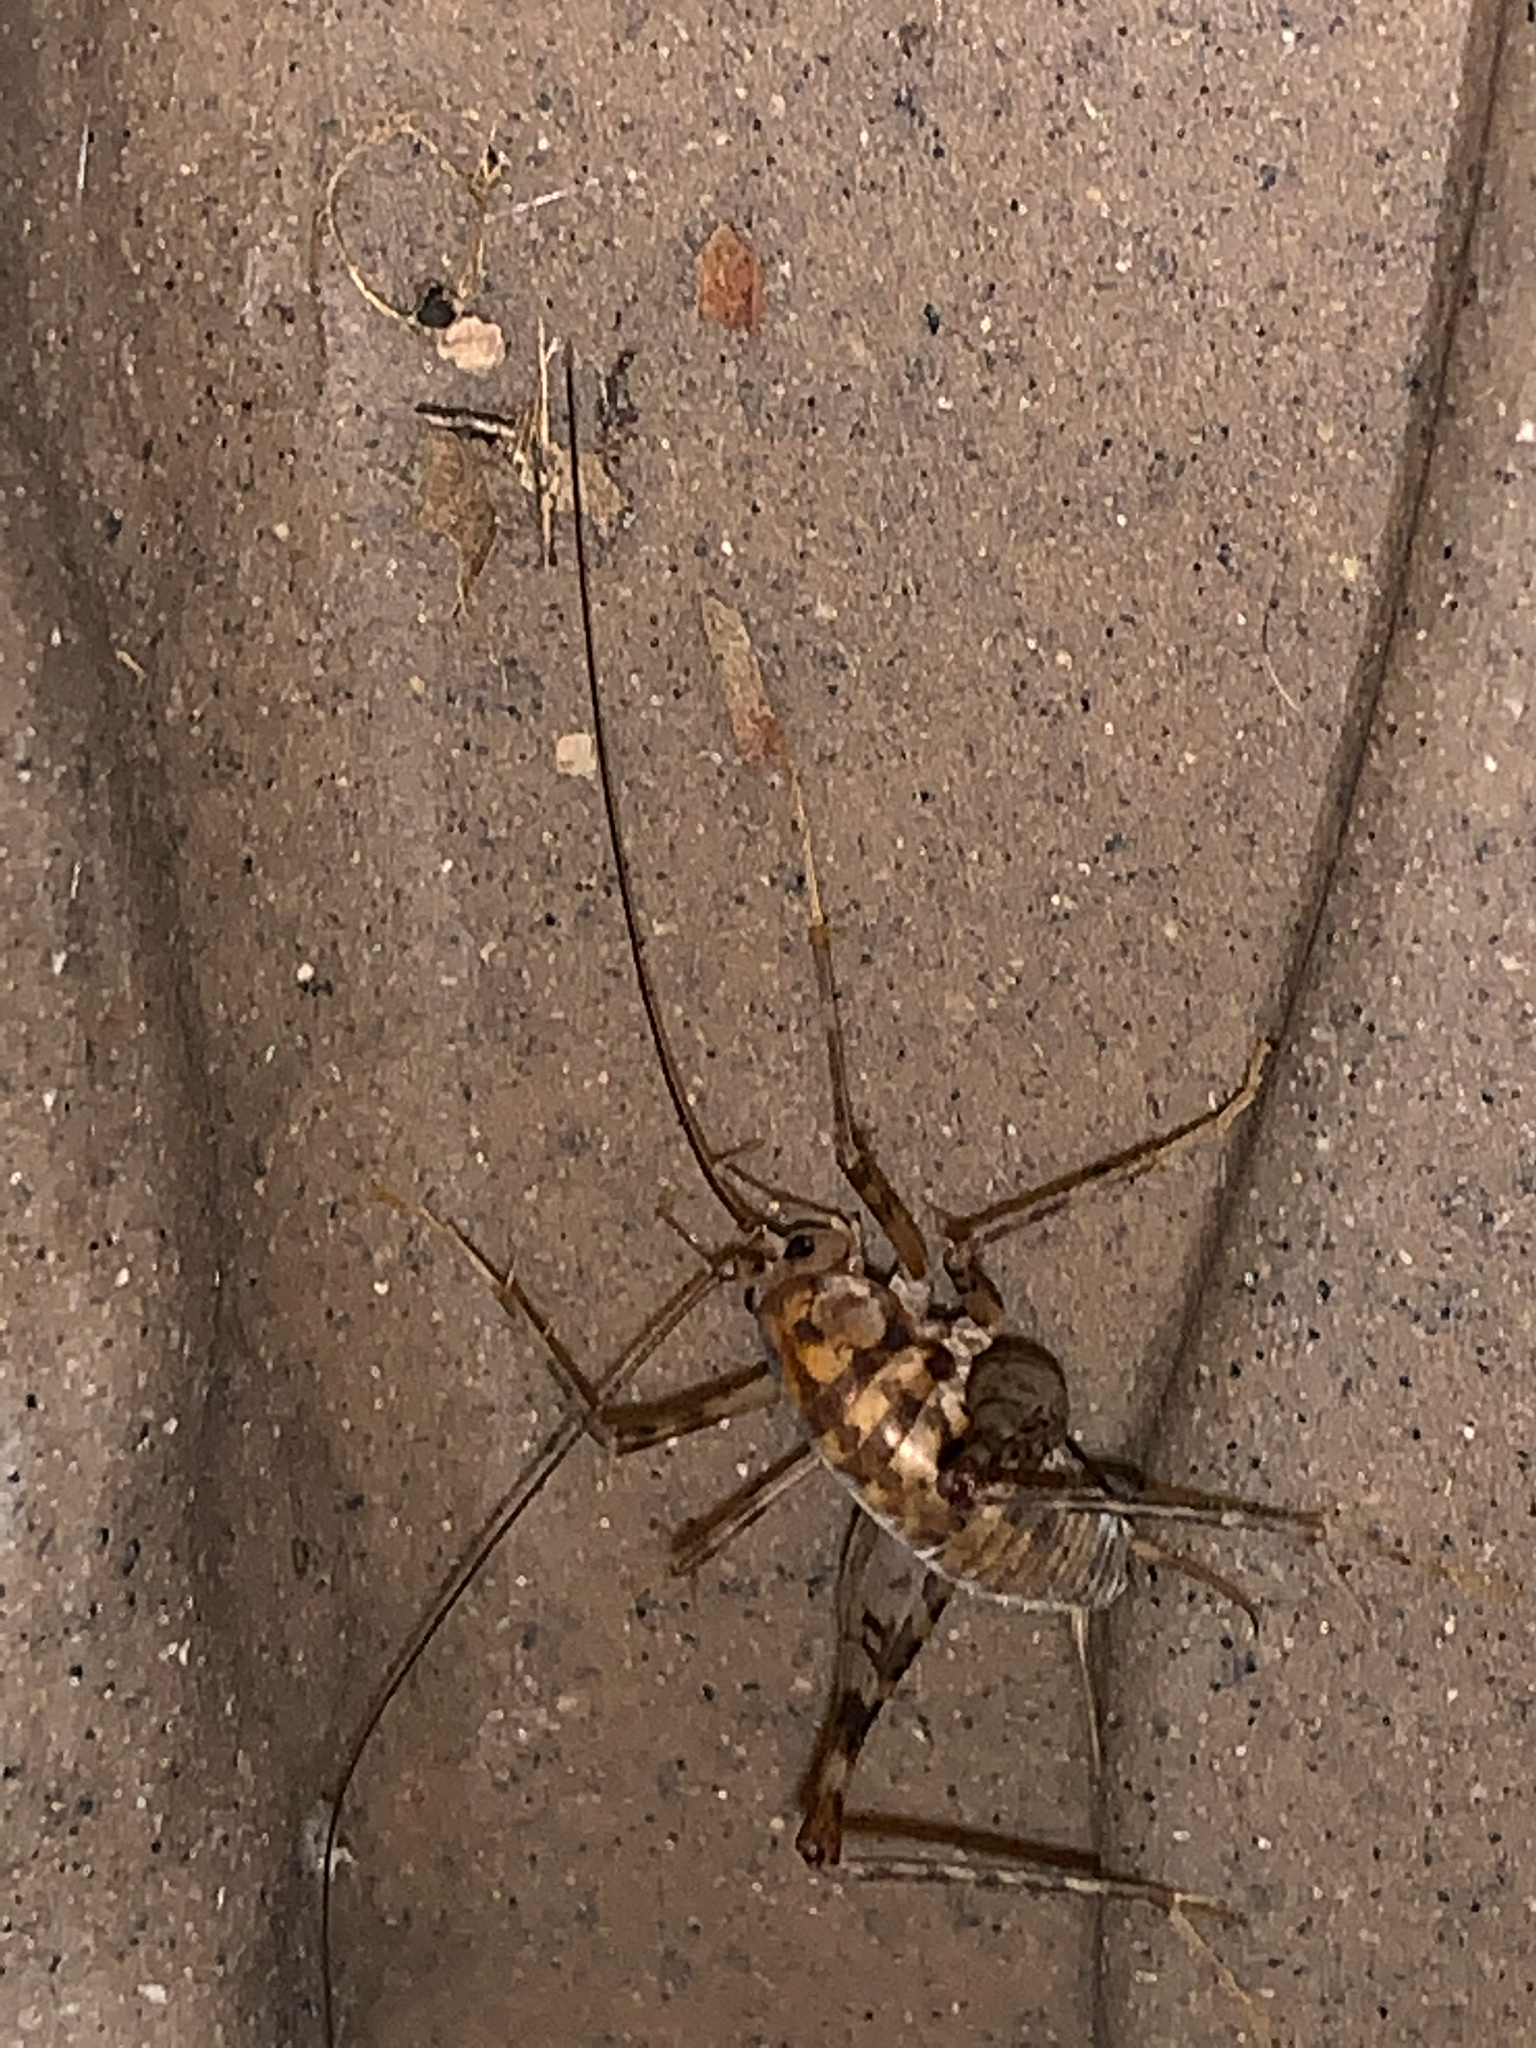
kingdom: Animalia
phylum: Arthropoda
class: Insecta
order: Orthoptera
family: Rhaphidophoridae
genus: Tachycines
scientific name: Tachycines asynamorus
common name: Greenhouse camel cricket
